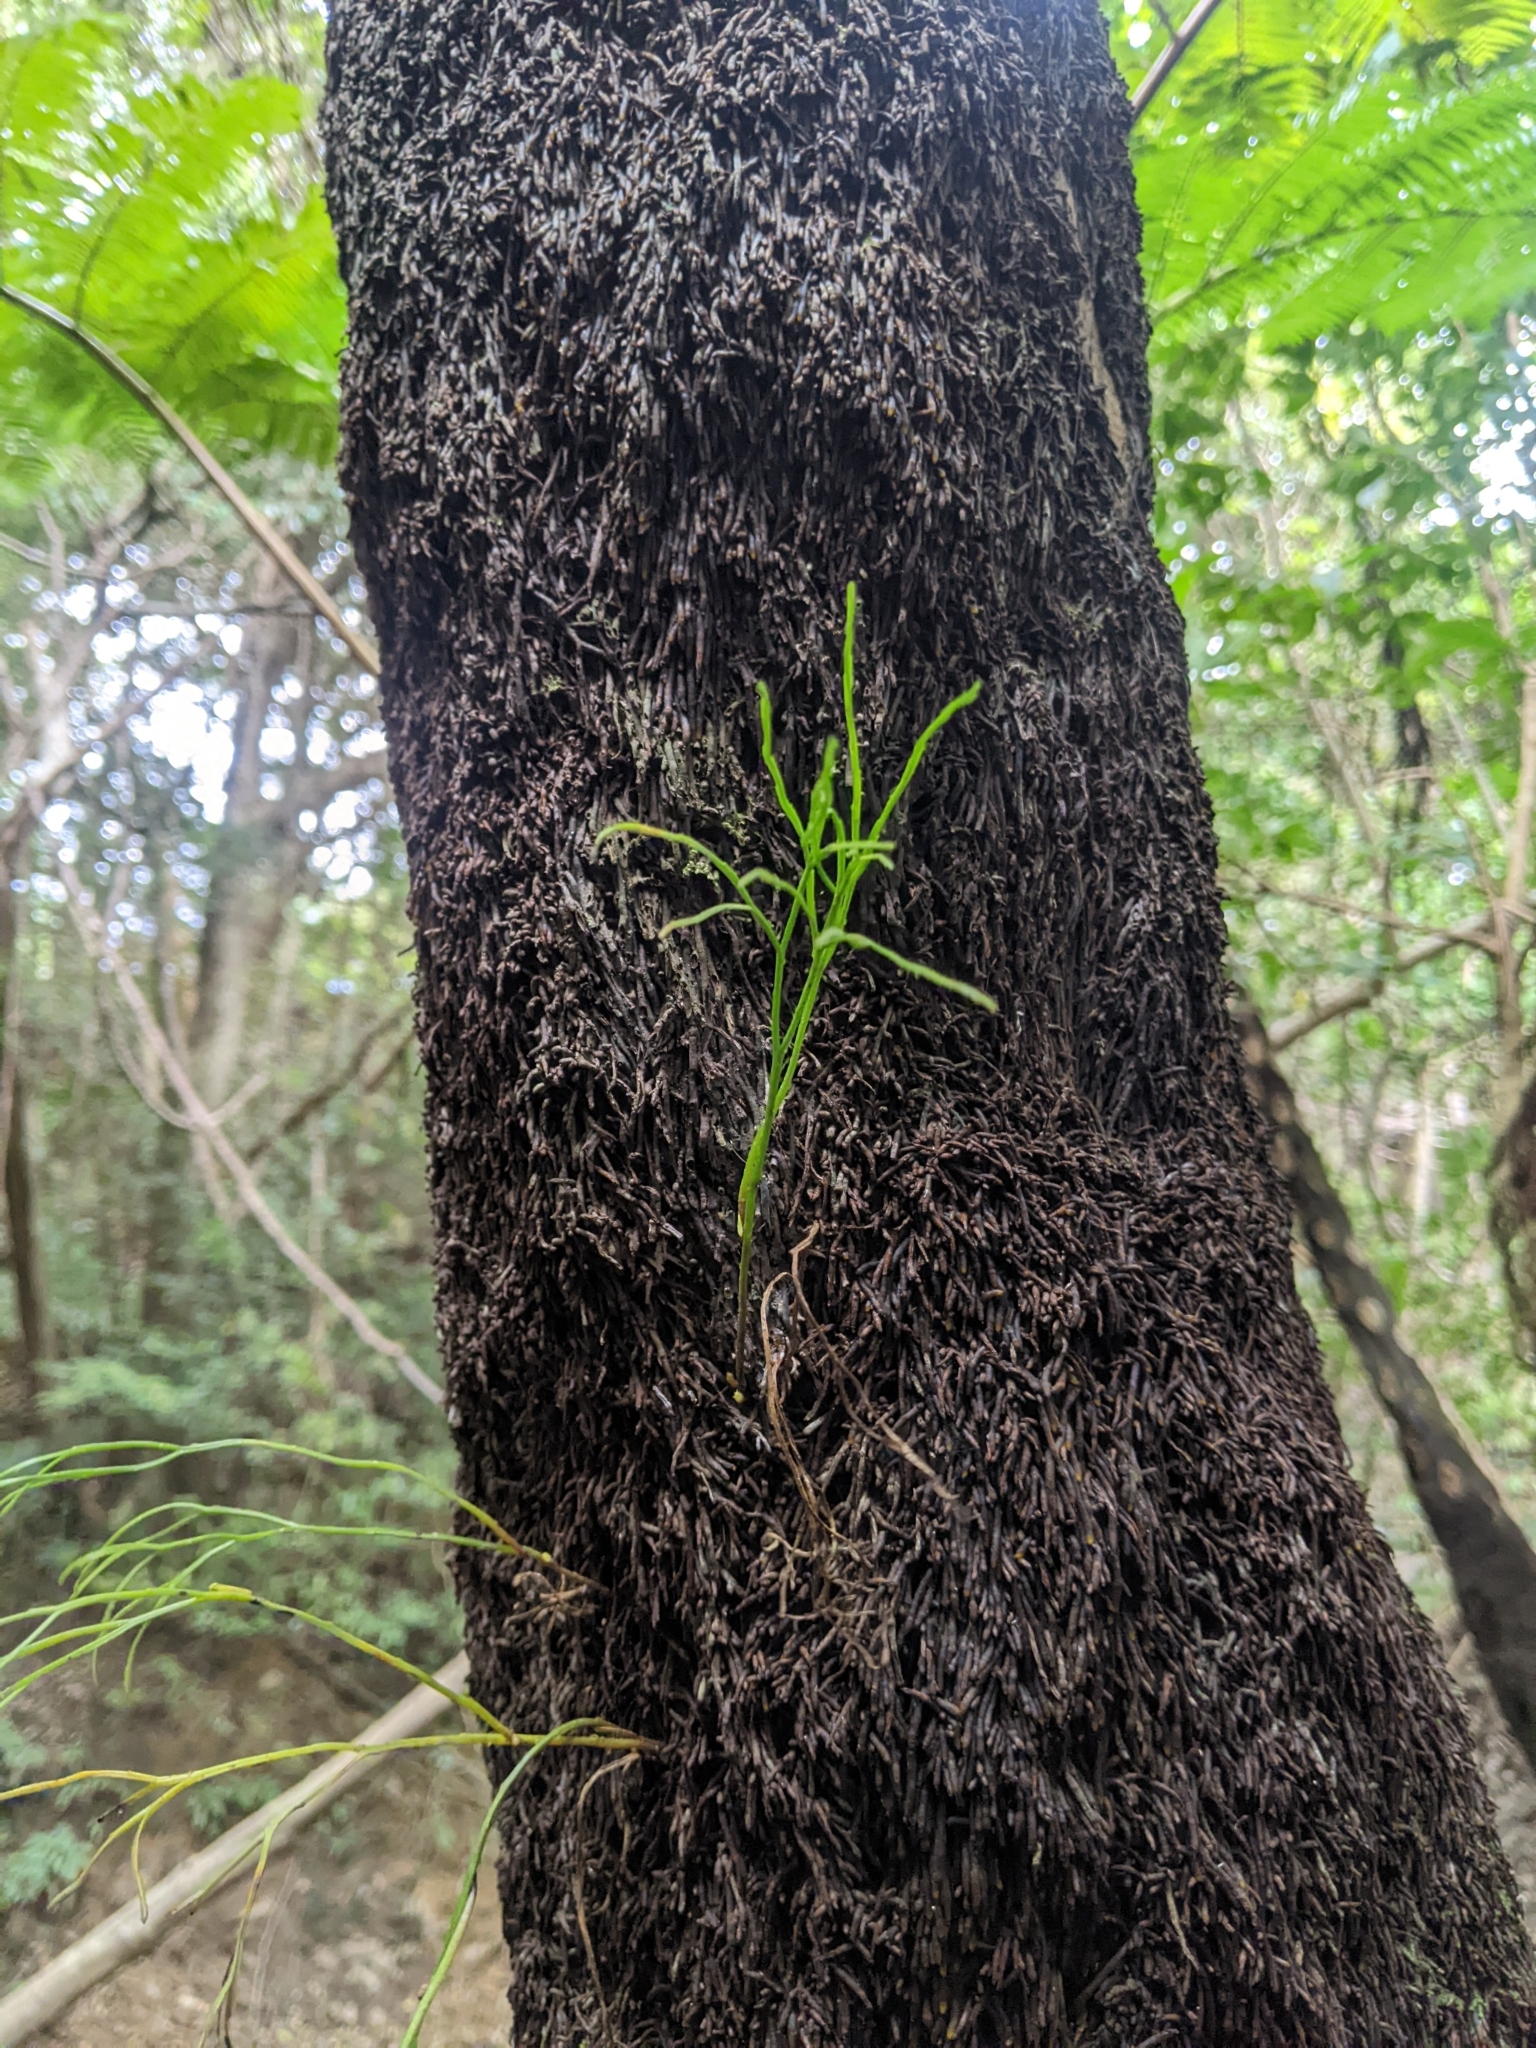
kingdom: Plantae
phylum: Tracheophyta
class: Polypodiopsida
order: Psilotales
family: Psilotaceae
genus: Psilotum
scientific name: Psilotum nudum
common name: Skeleton fork fern
